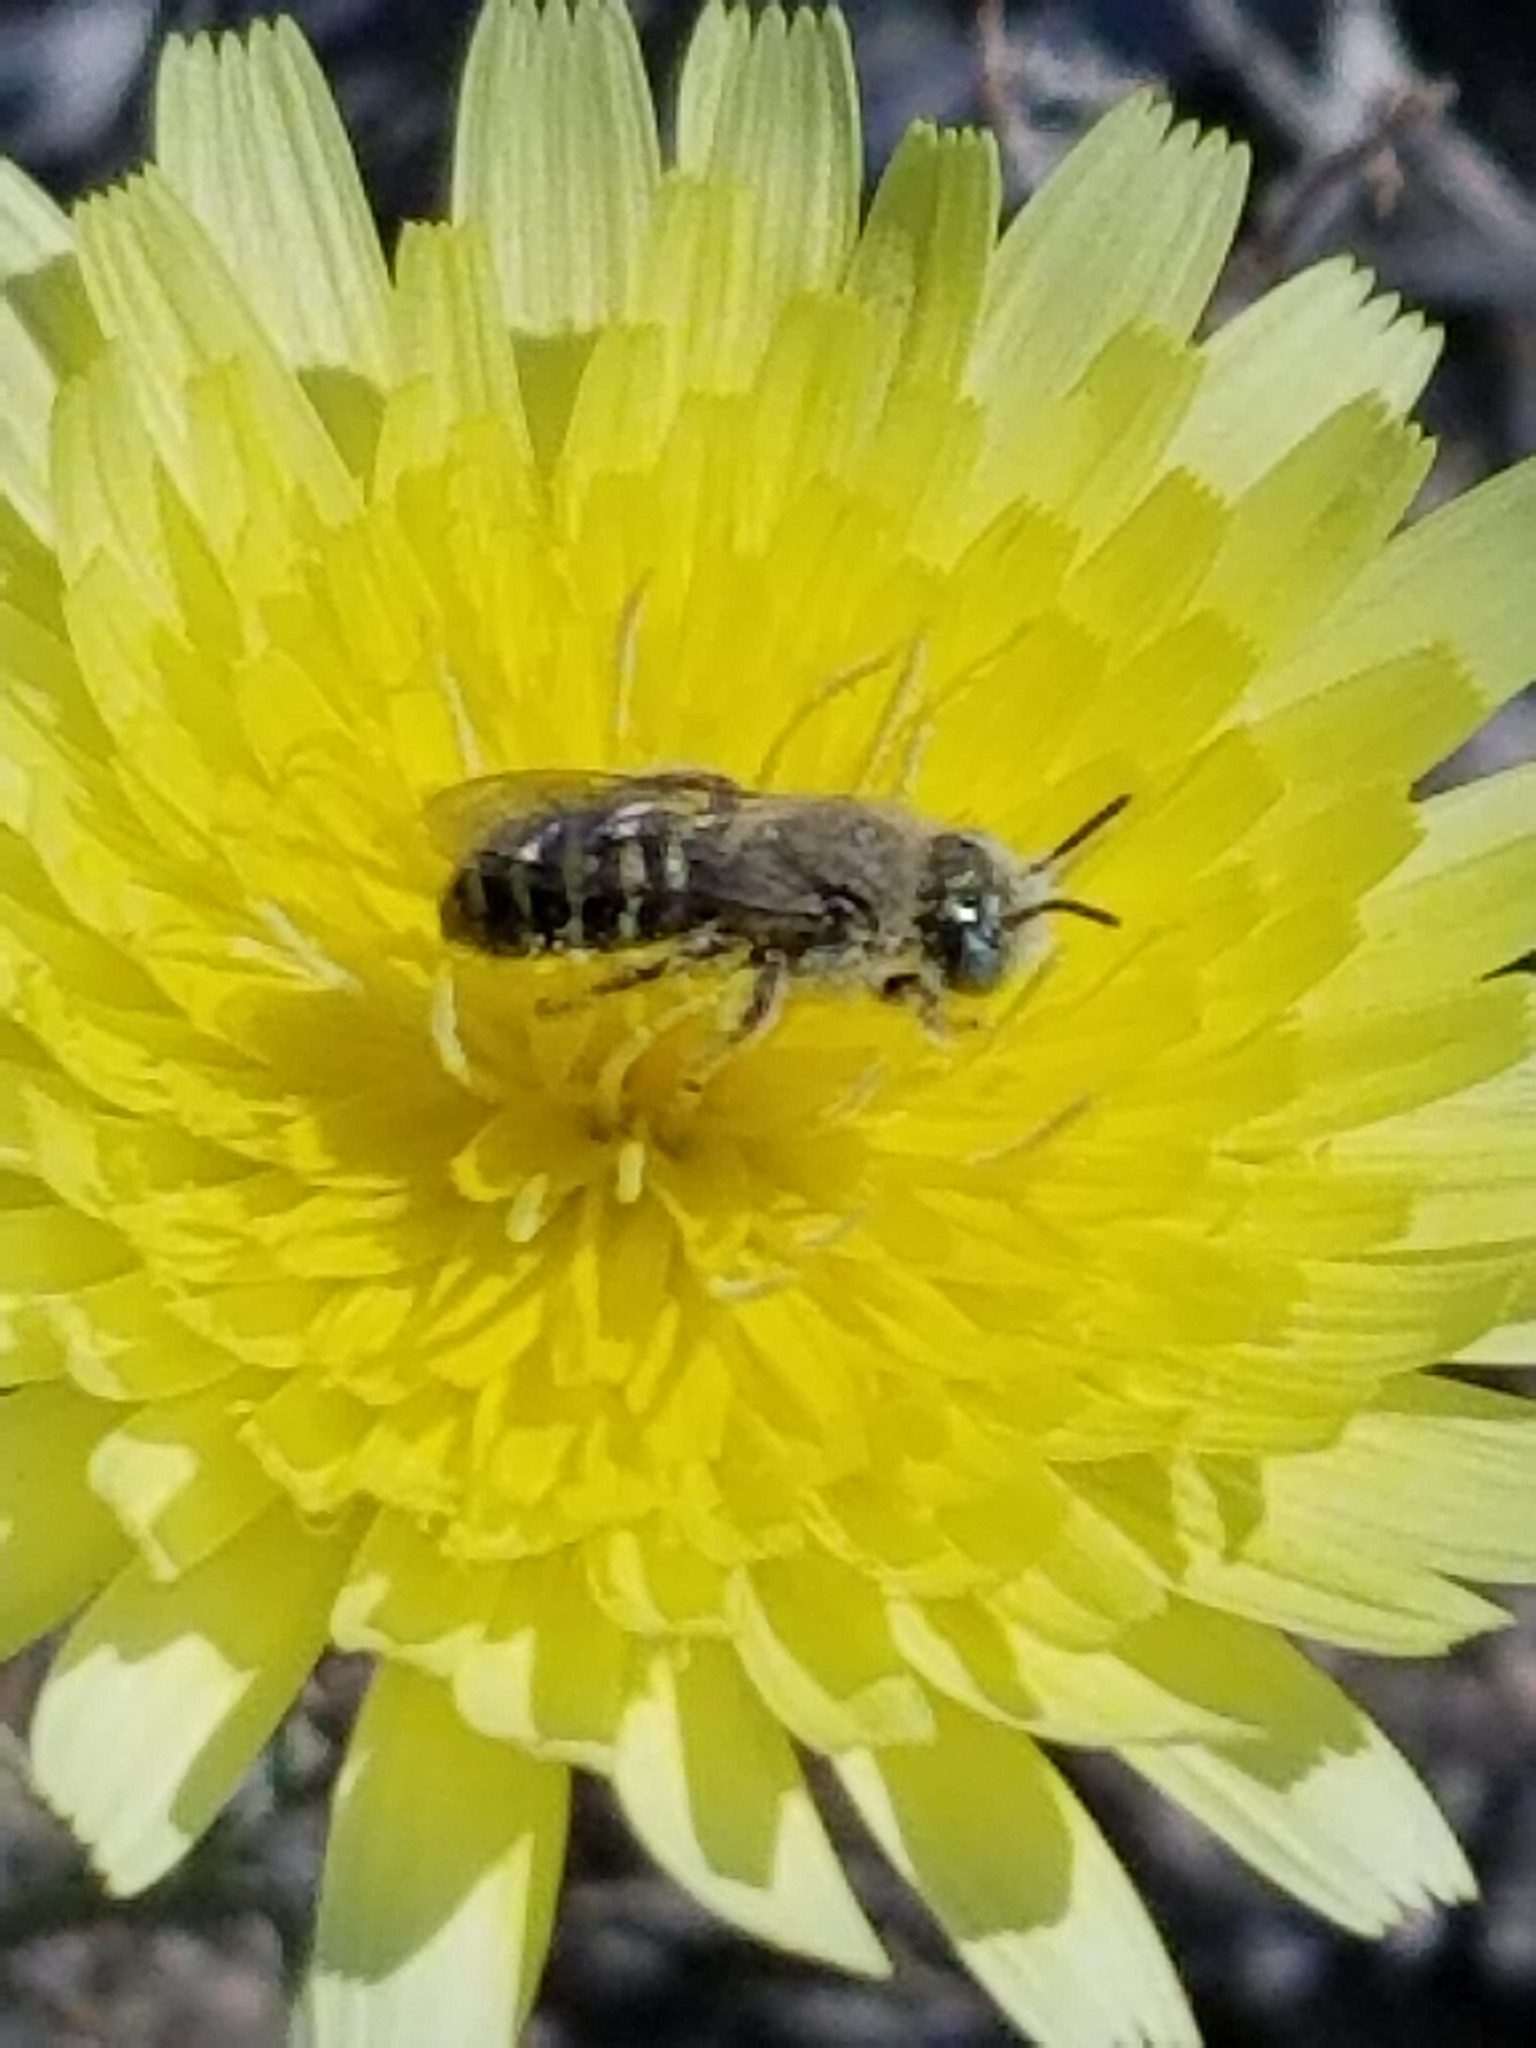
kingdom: Animalia
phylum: Arthropoda
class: Insecta
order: Hymenoptera
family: Andrenidae
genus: Calliopsis
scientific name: Calliopsis puellae
